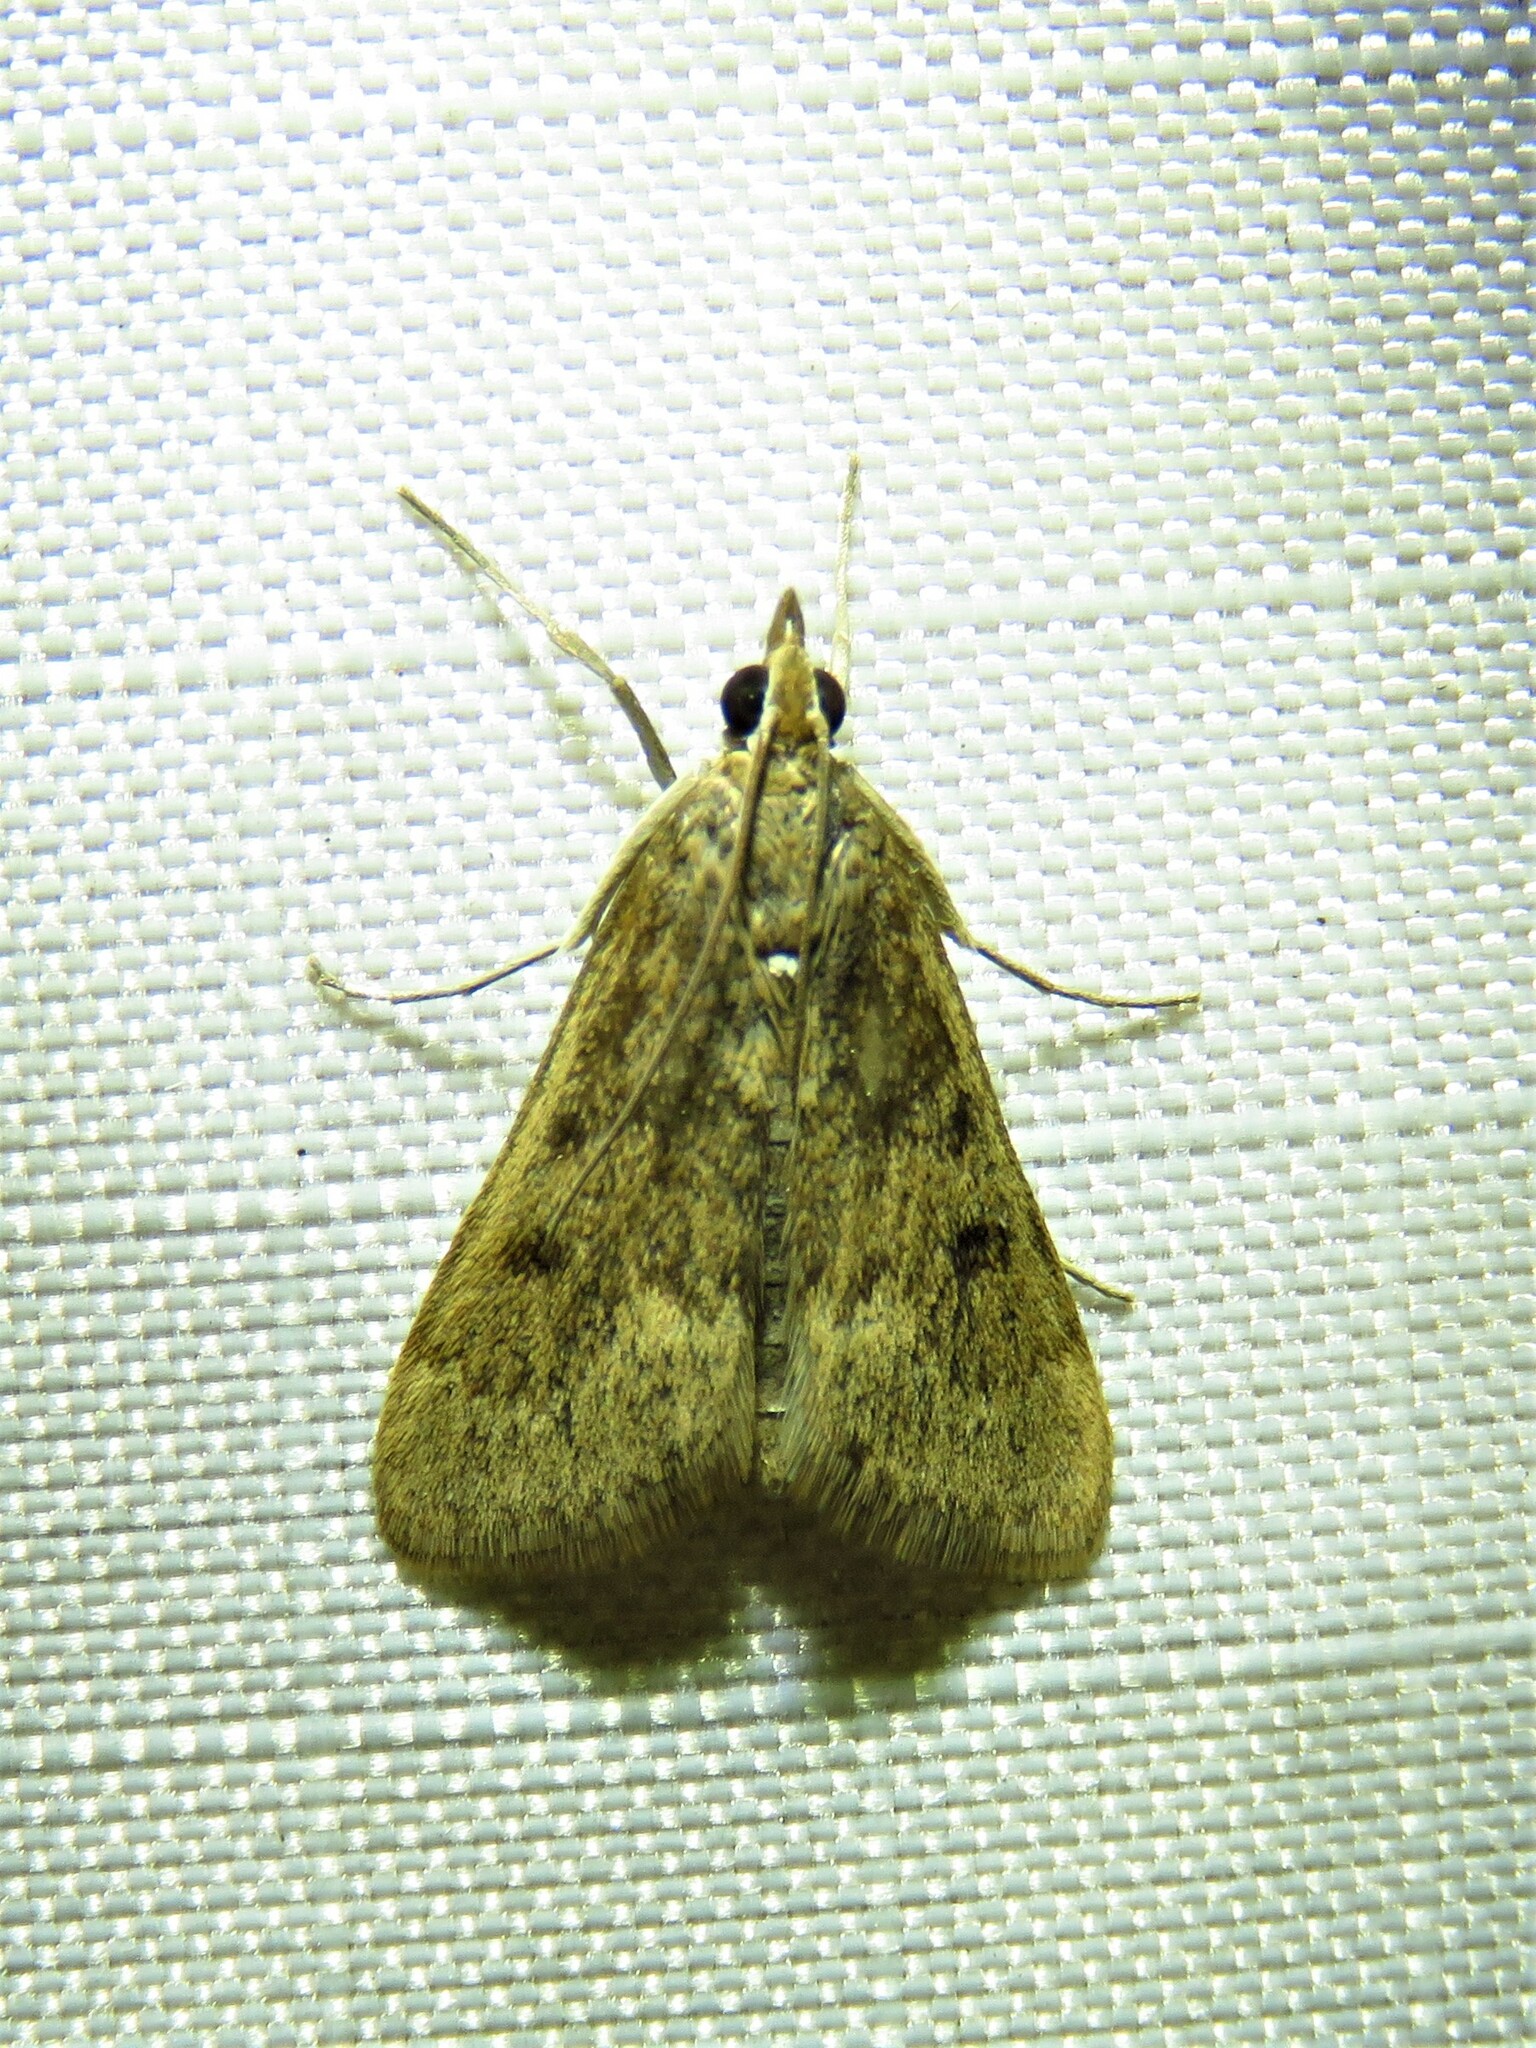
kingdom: Animalia
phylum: Arthropoda
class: Insecta
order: Lepidoptera
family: Crambidae
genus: Achyra
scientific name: Achyra rantalis
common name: Garden webworm
